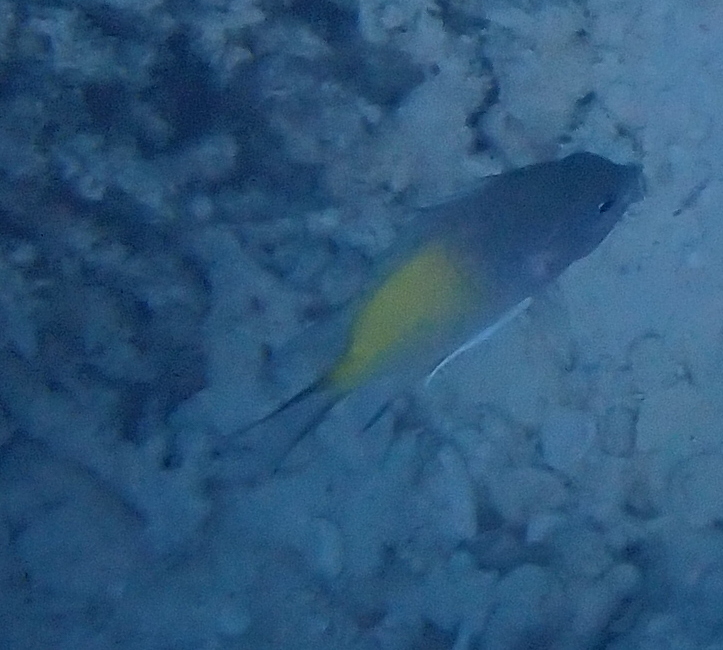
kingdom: Animalia
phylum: Chordata
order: Perciformes
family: Pomacentridae
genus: Amblyglyphidodon
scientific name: Amblyglyphidodon flavilatus
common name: Yellowfin damsel
